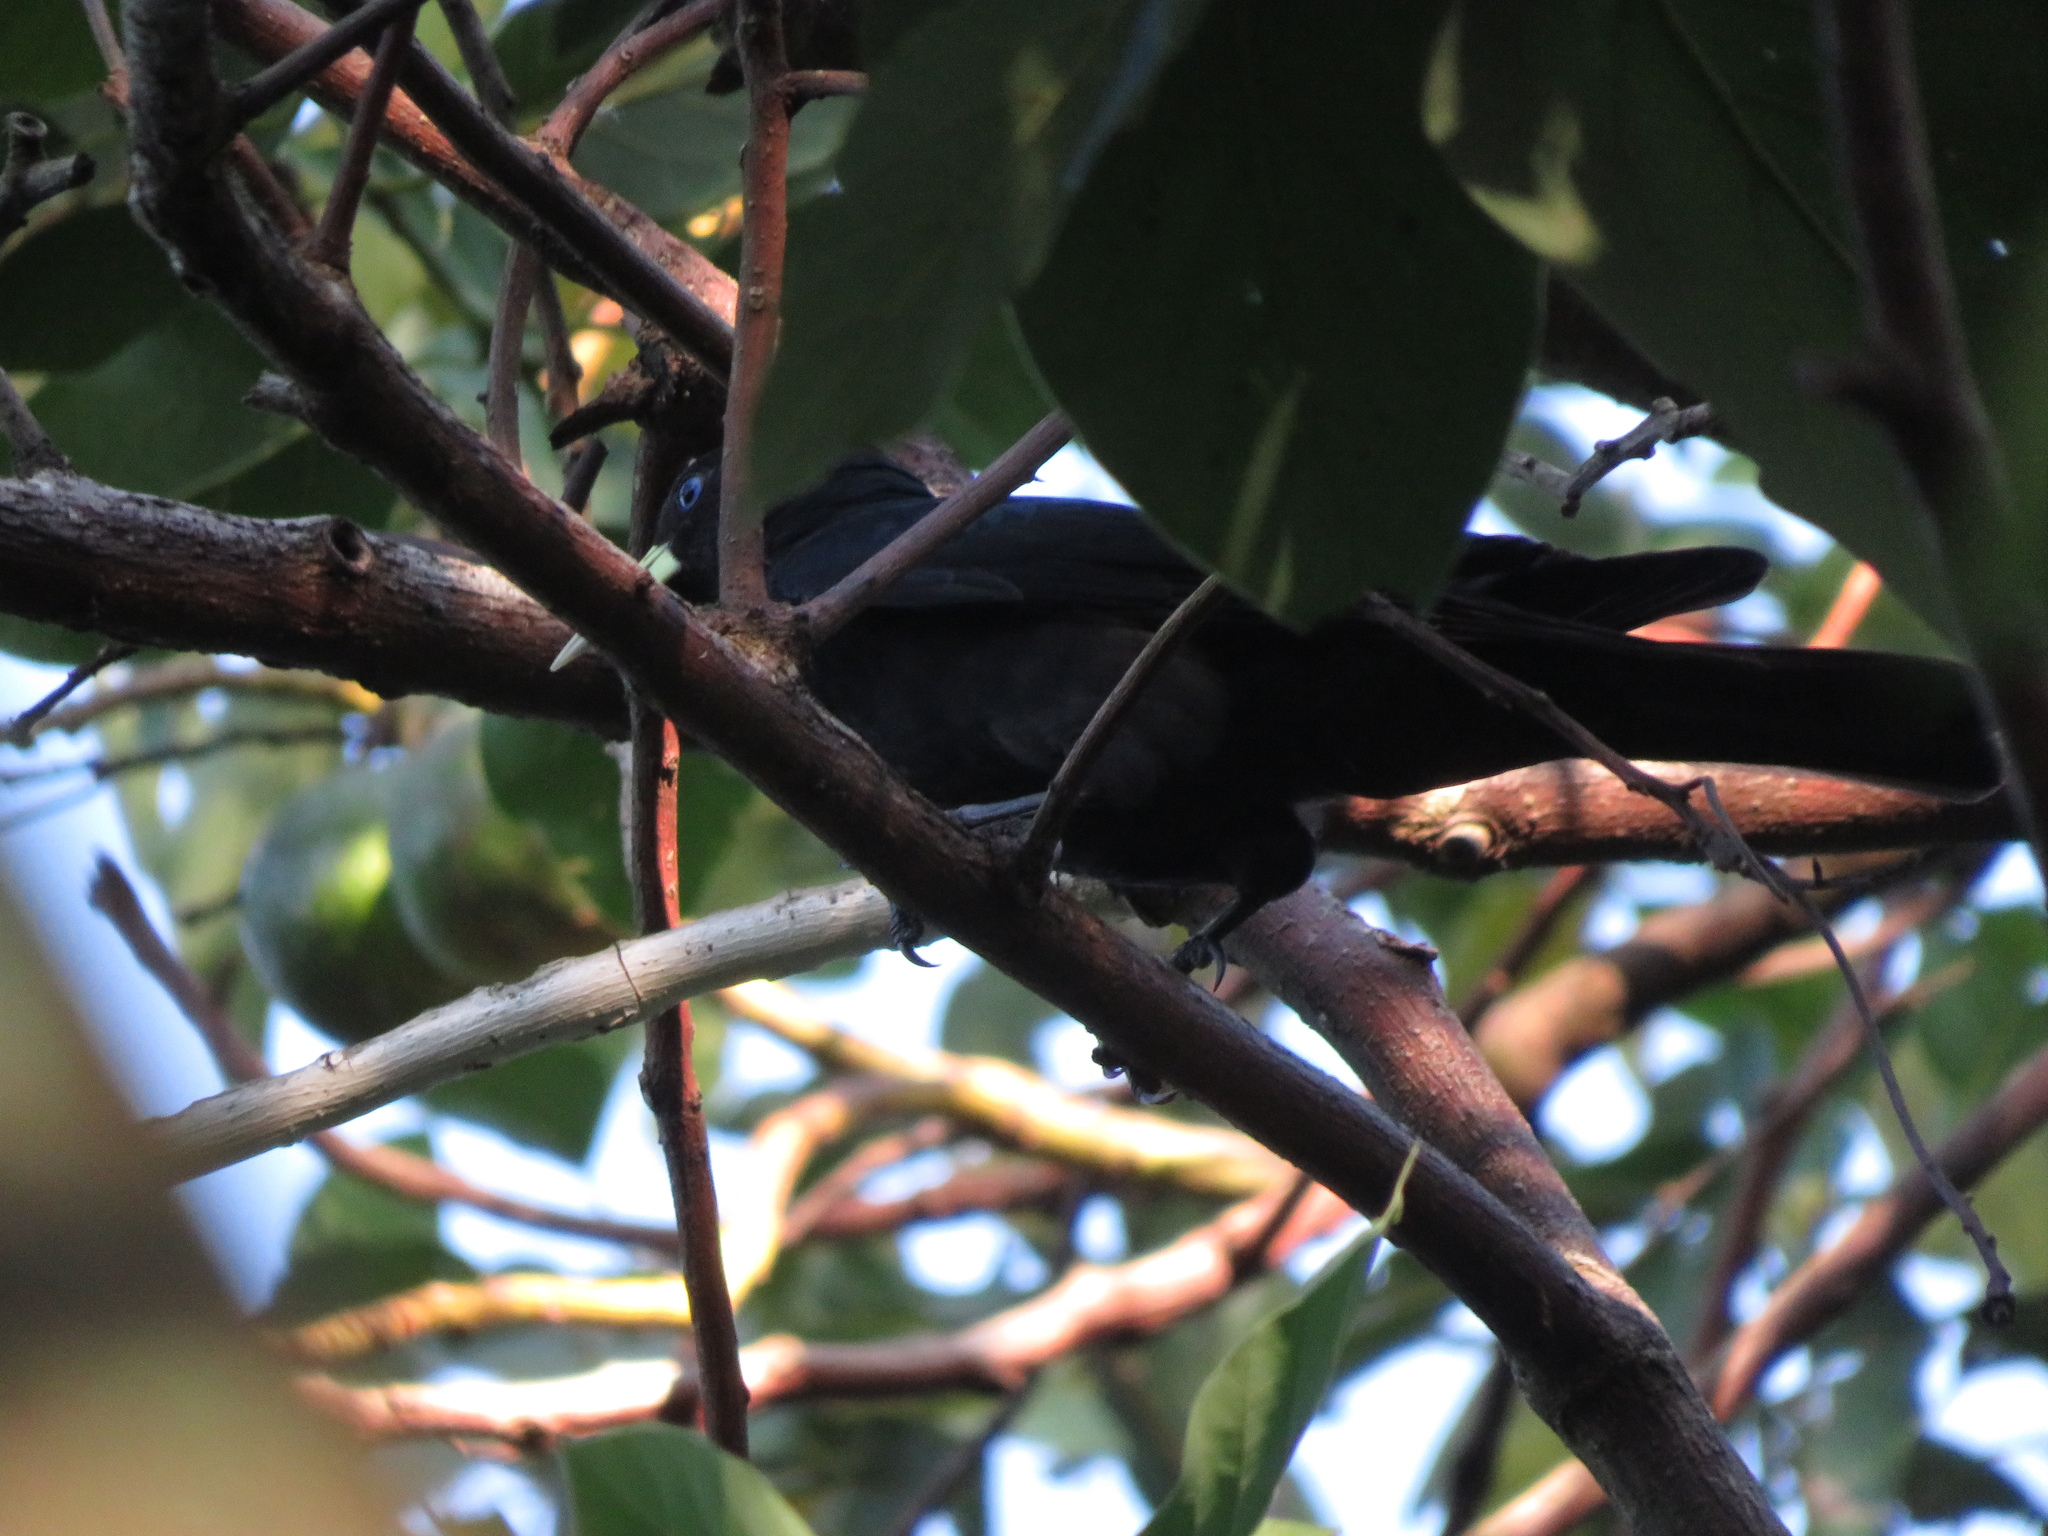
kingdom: Animalia
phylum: Chordata
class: Aves
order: Passeriformes
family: Icteridae
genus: Cacicus
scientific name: Cacicus haemorrhous
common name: Red-rumped cacique
